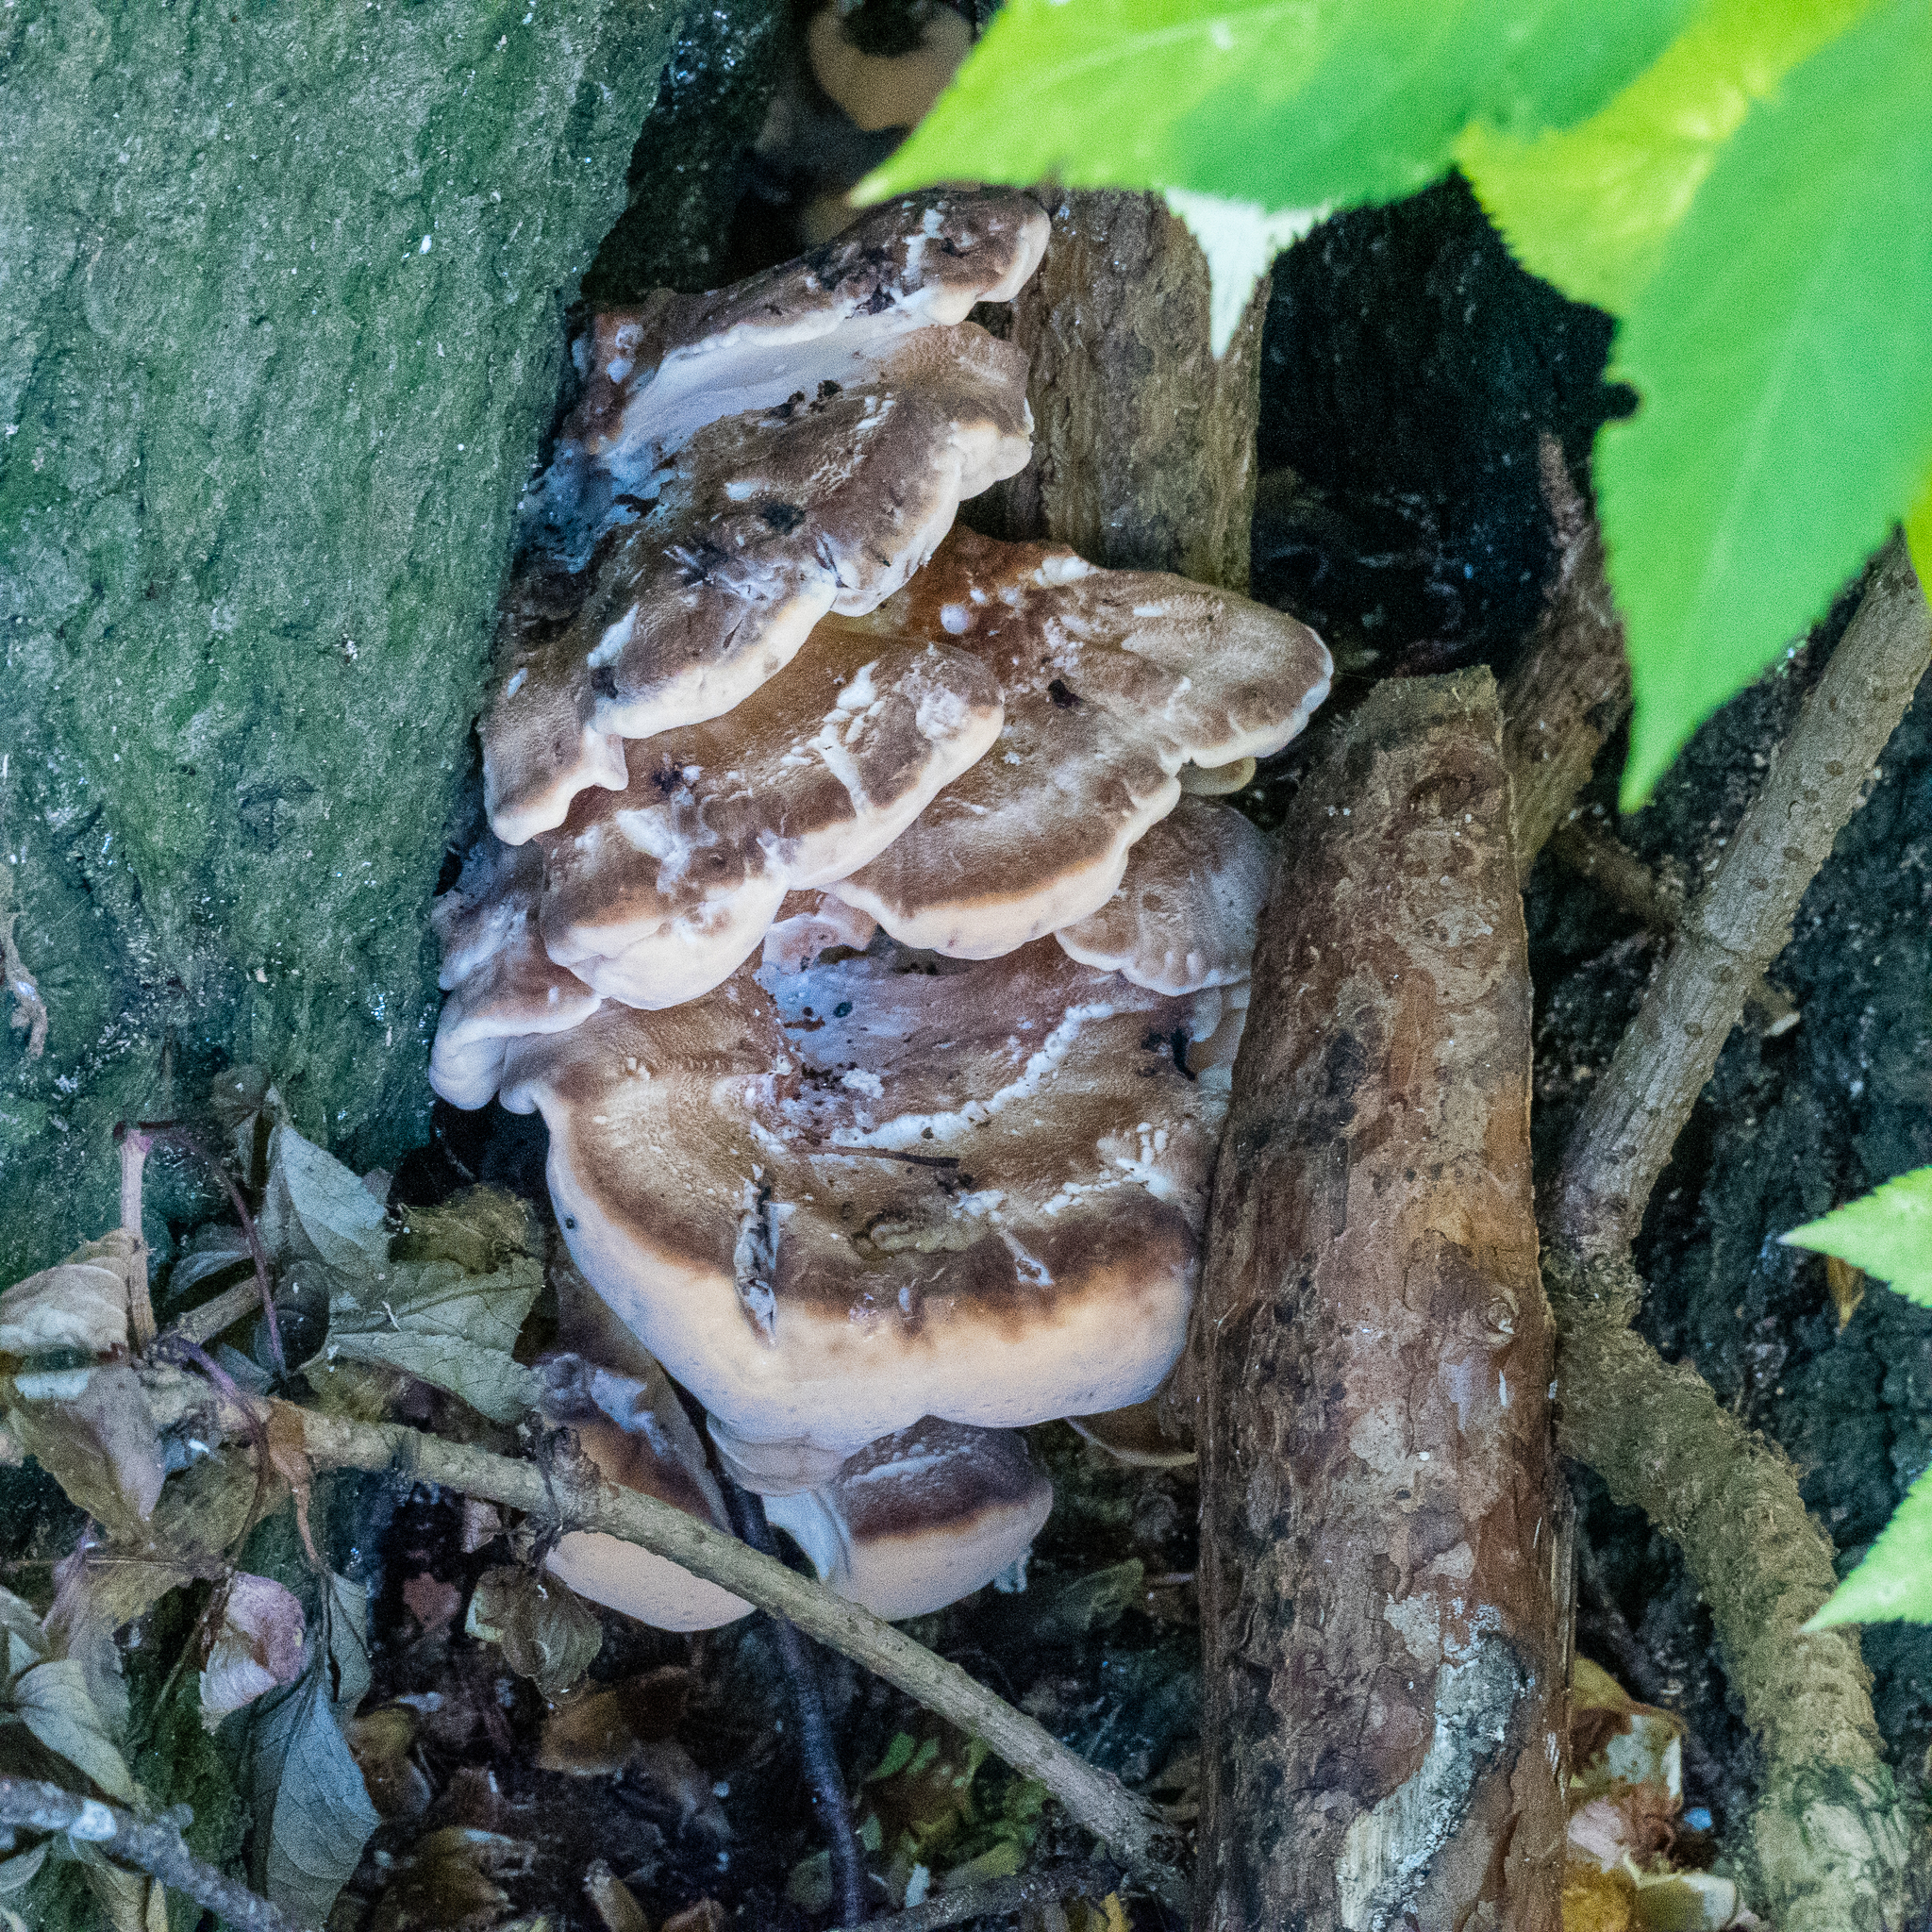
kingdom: Fungi
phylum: Basidiomycota
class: Agaricomycetes
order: Polyporales
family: Meripilaceae
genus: Meripilus
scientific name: Meripilus giganteus
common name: Giant polypore
